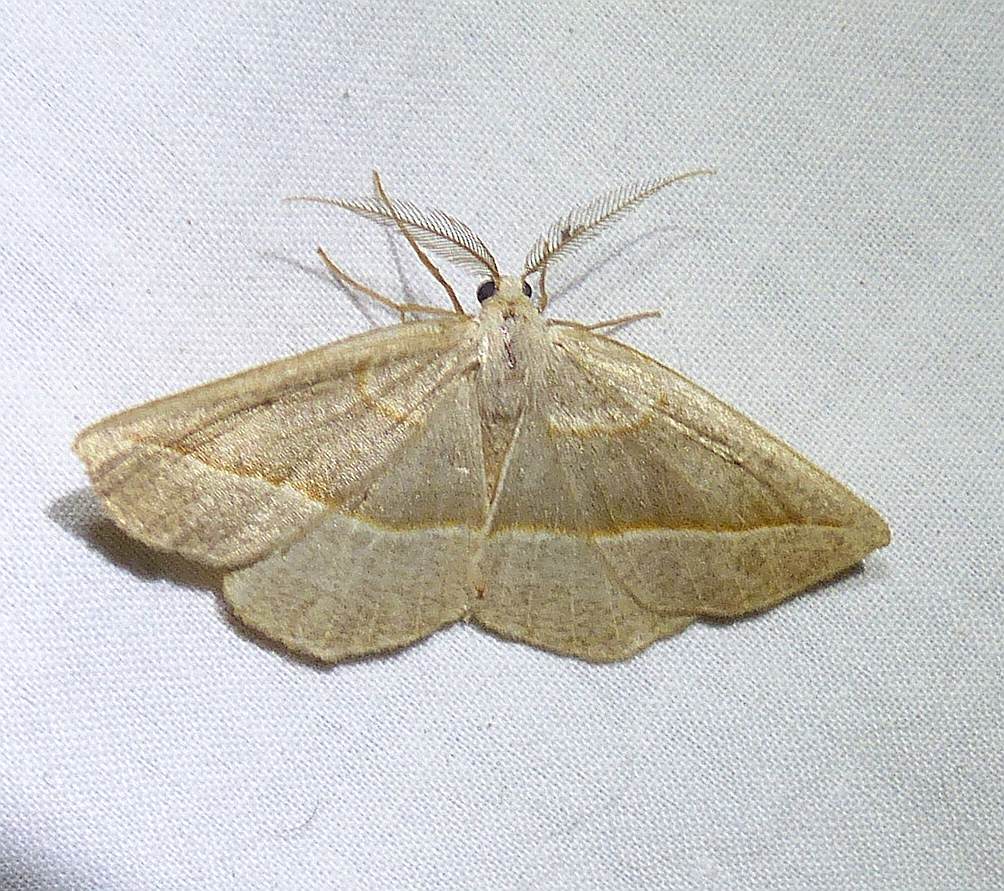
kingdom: Animalia
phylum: Arthropoda
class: Insecta
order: Lepidoptera
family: Geometridae
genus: Eusarca
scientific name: Eusarca confusaria
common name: Confused eusarca
